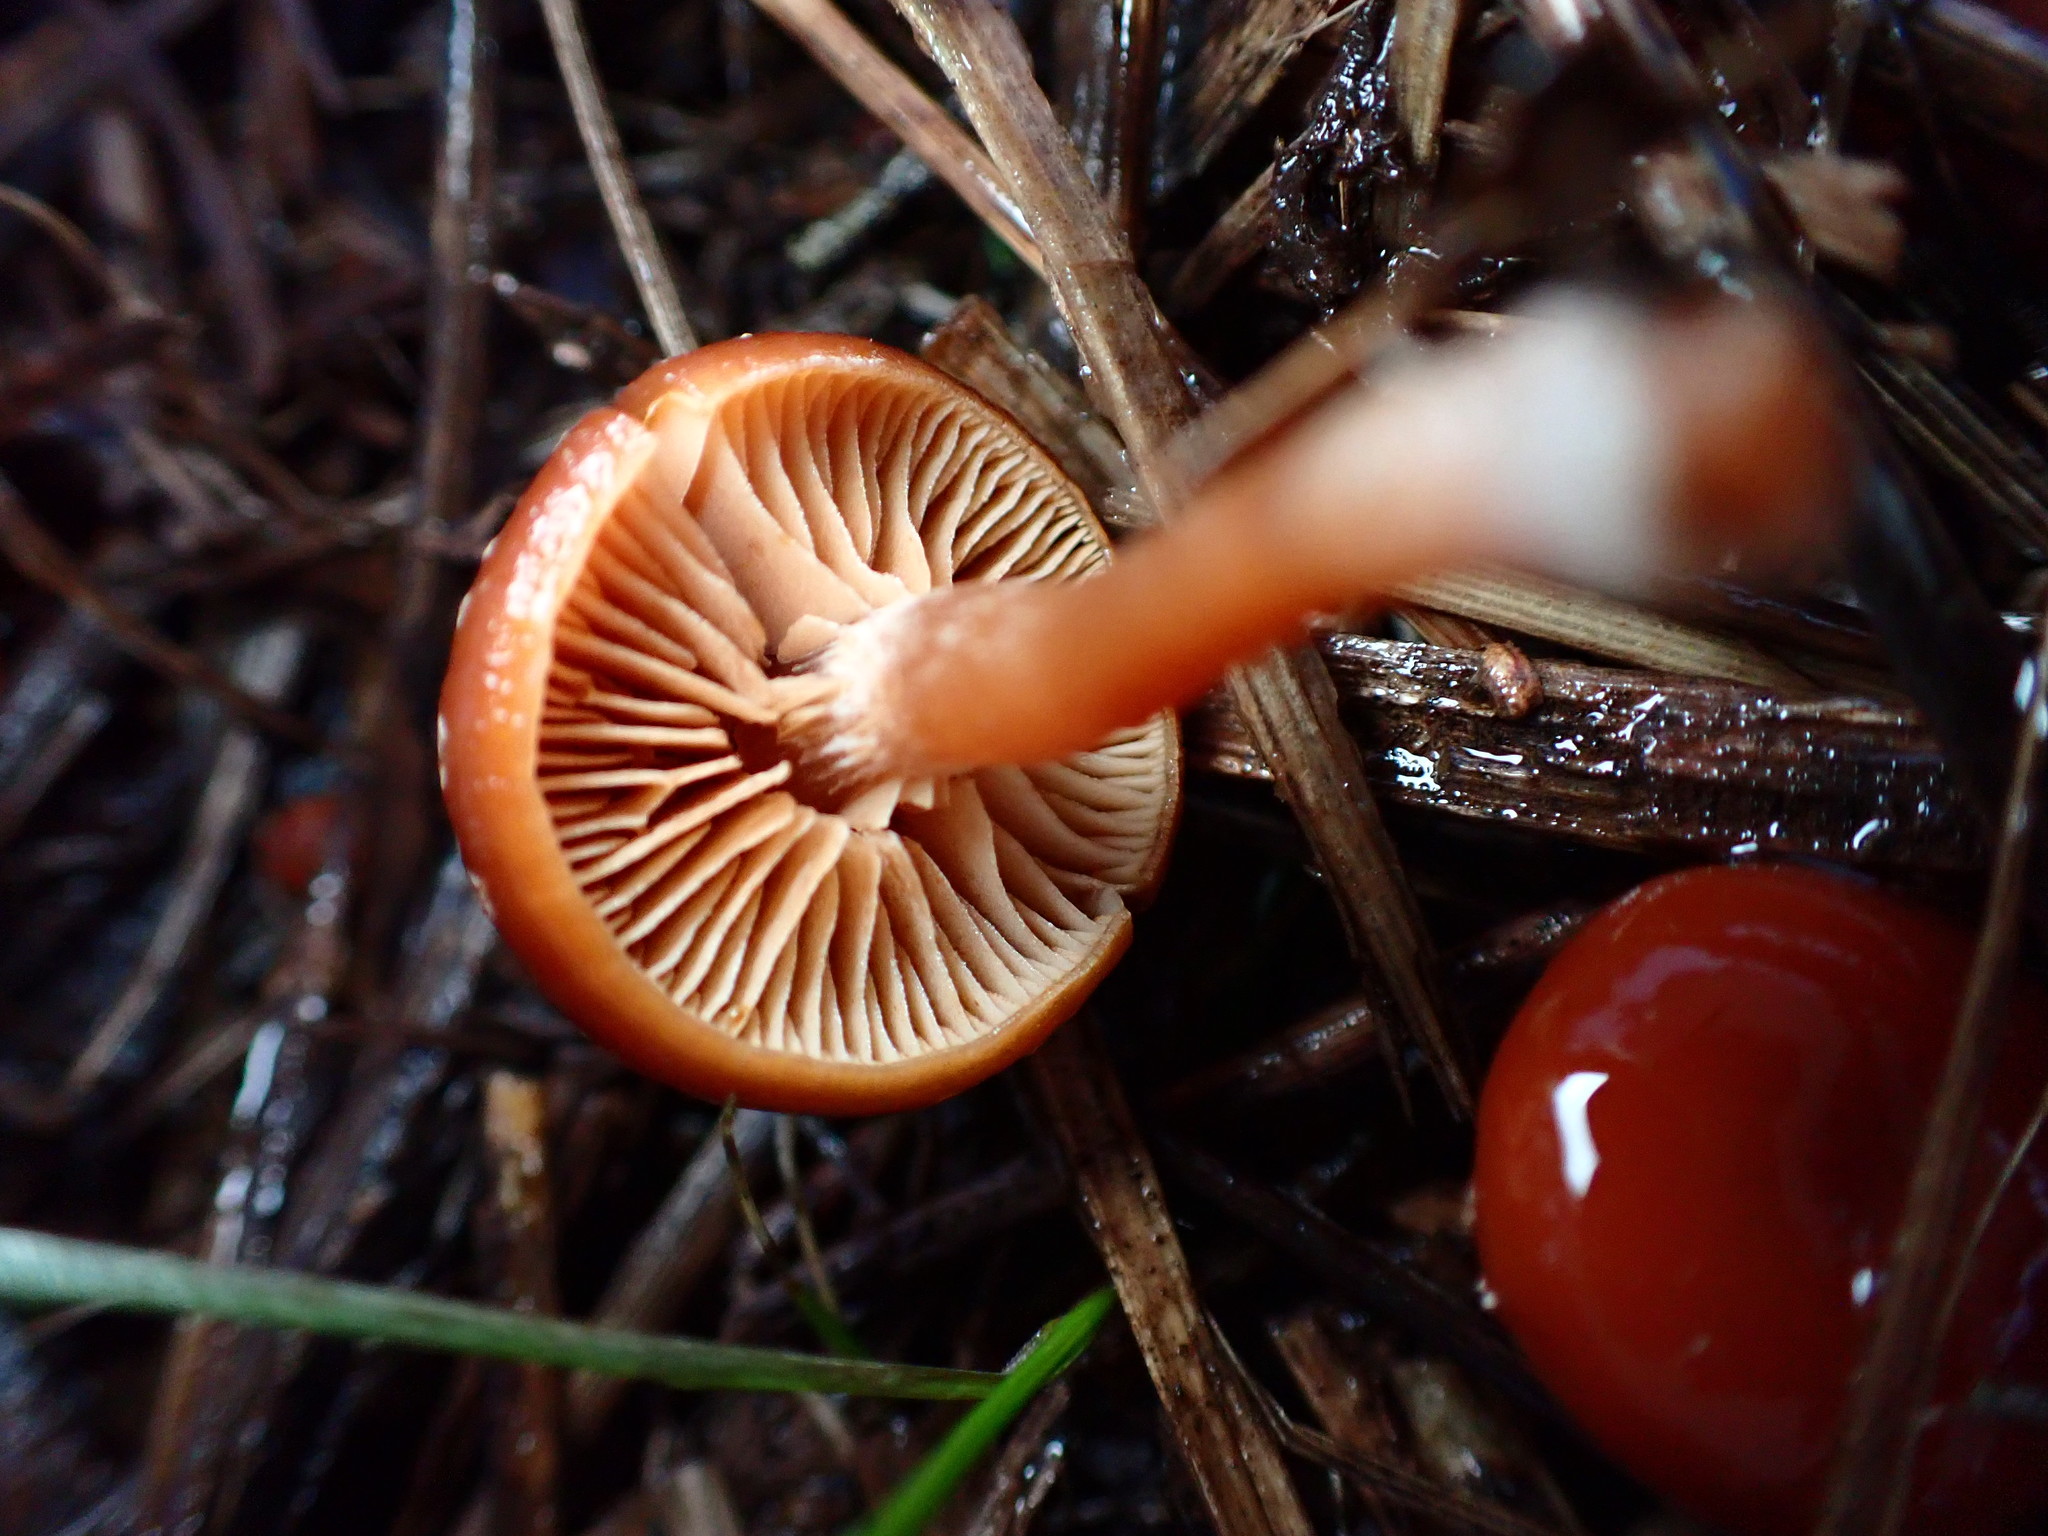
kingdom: Fungi
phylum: Basidiomycota
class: Agaricomycetes
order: Agaricales
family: Tubariaceae
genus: Tubaria
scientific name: Tubaria furfuracea
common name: Scurfy twiglet
